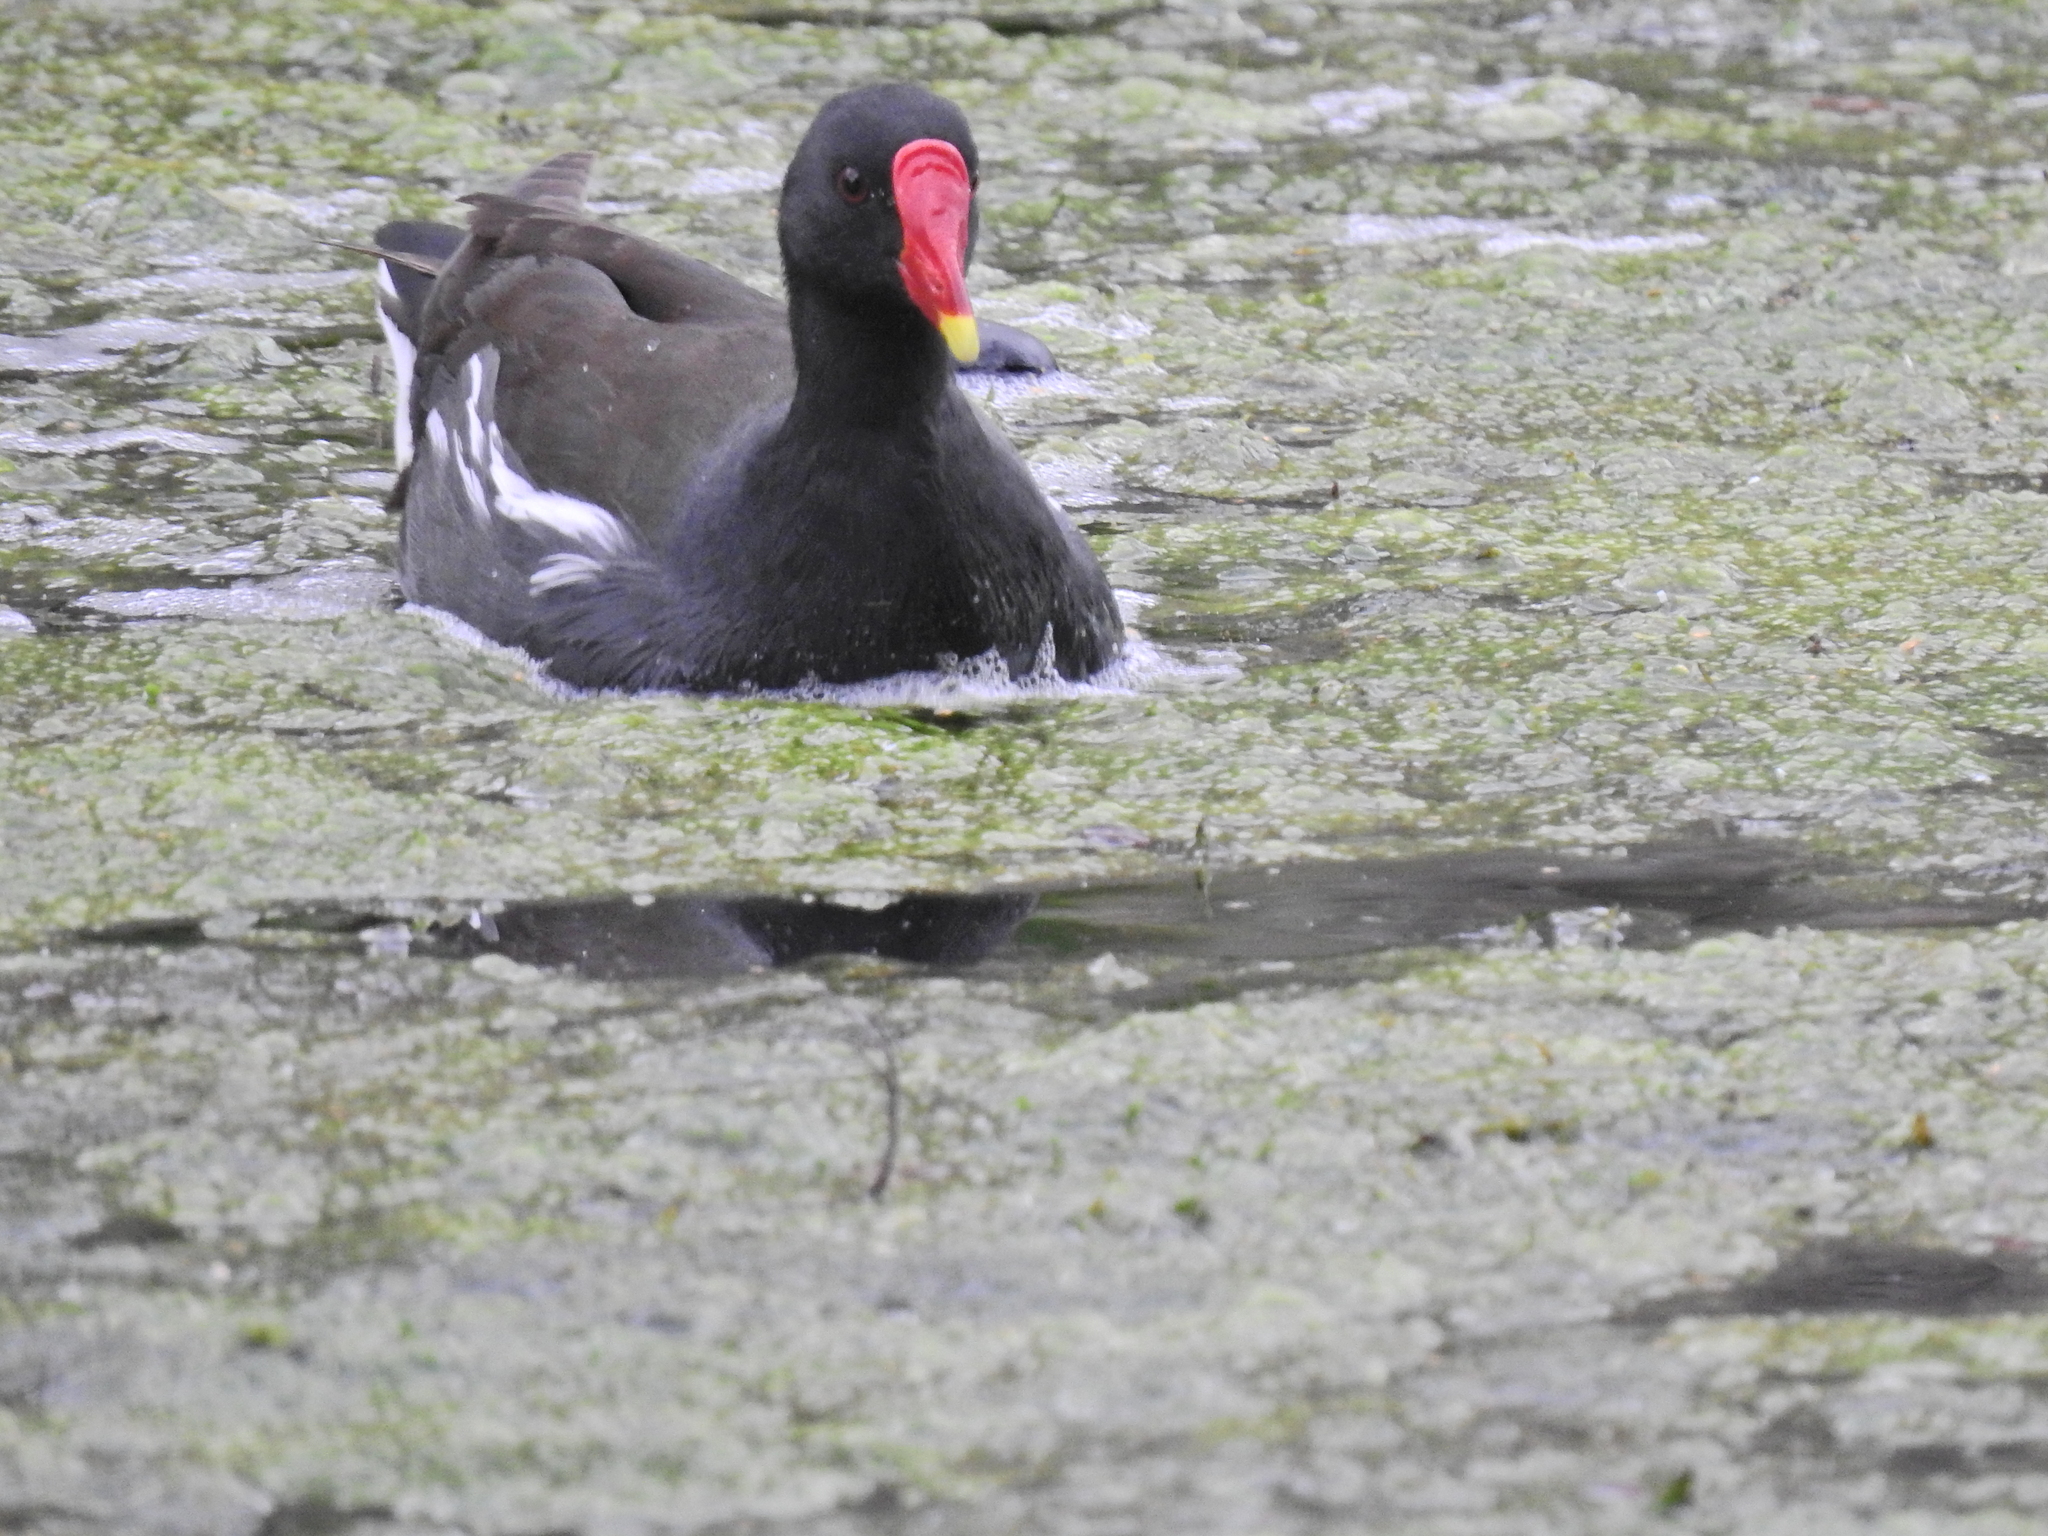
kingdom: Animalia
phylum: Chordata
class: Aves
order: Gruiformes
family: Rallidae
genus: Gallinula
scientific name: Gallinula chloropus
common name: Common moorhen
